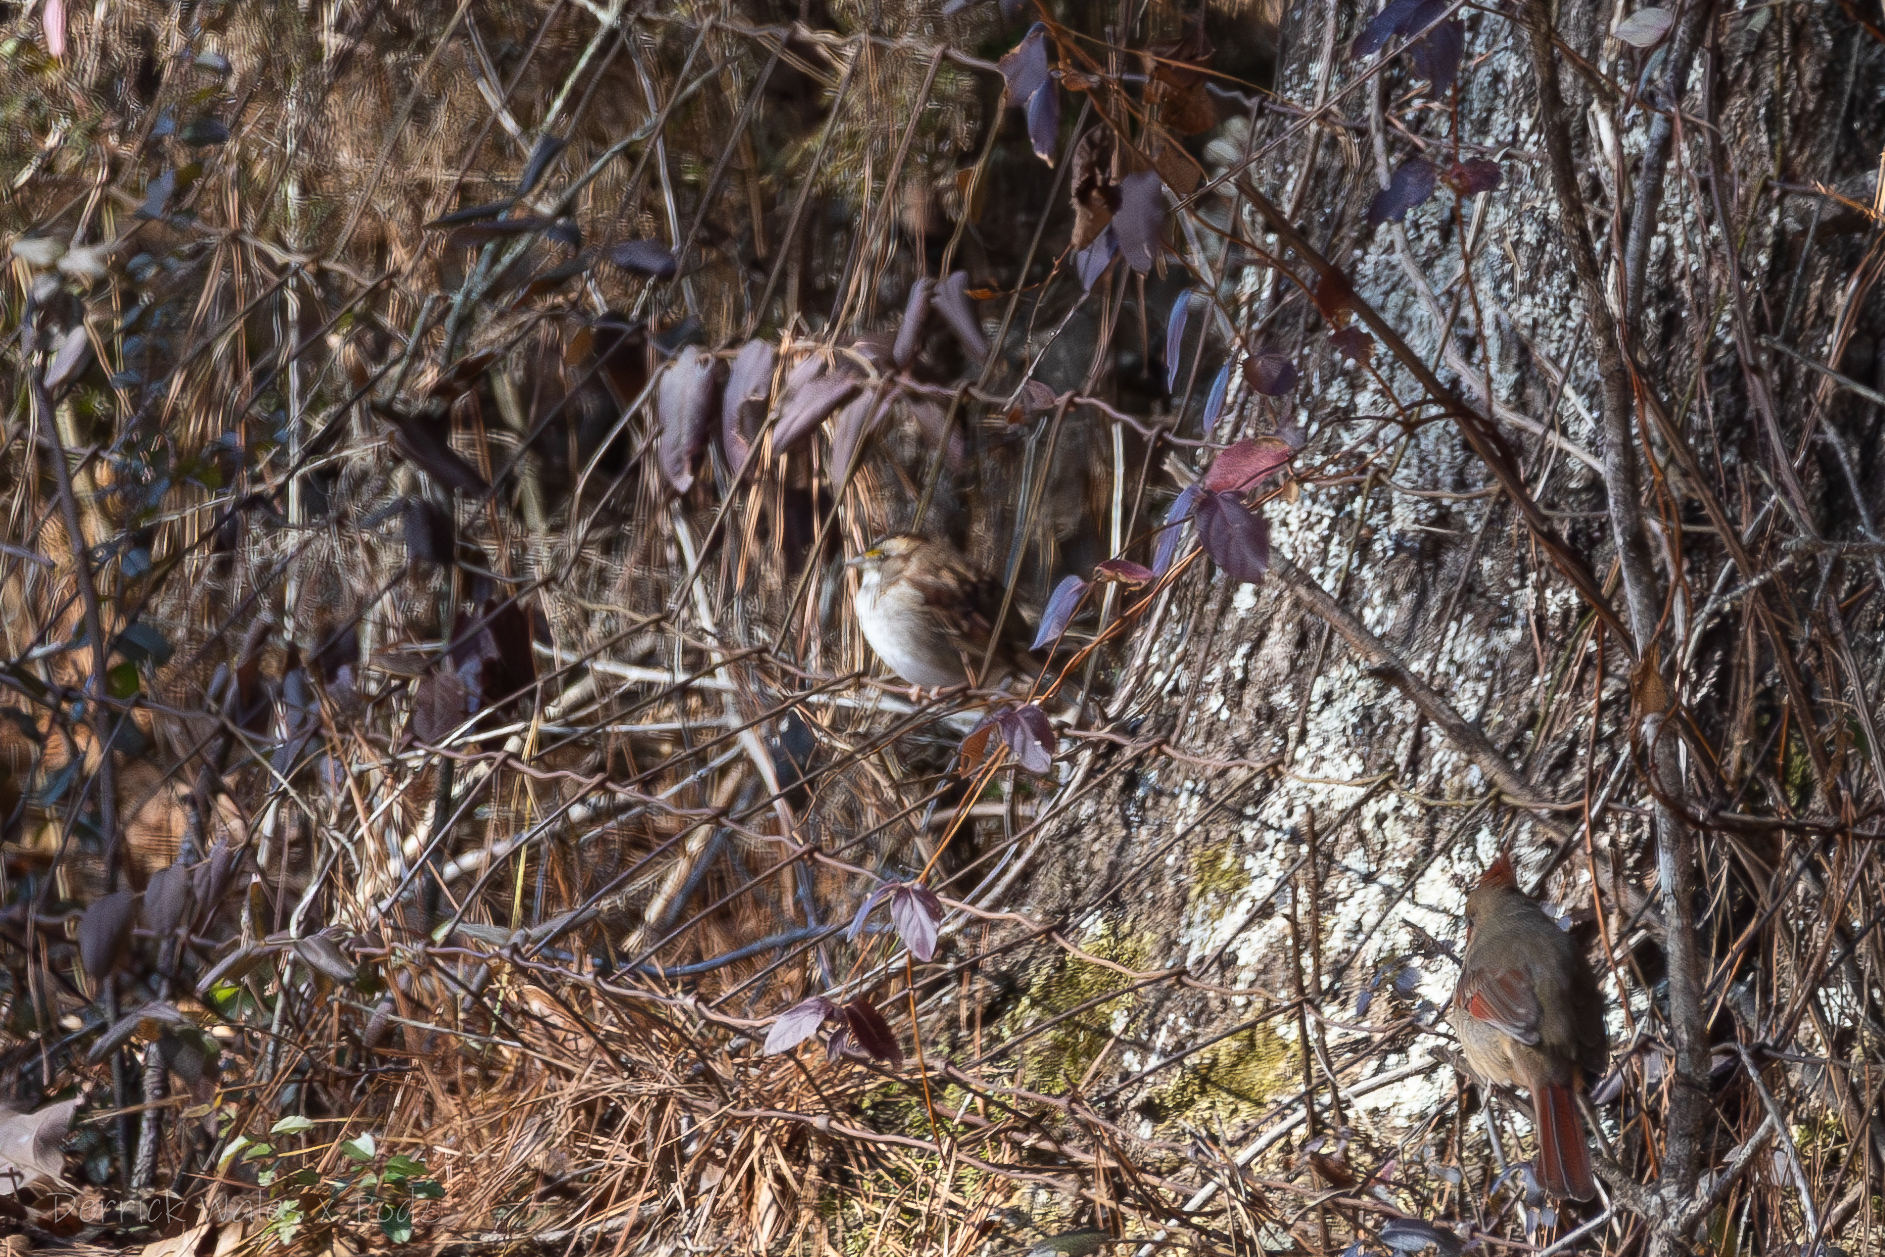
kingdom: Animalia
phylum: Chordata
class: Aves
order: Passeriformes
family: Passerellidae
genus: Zonotrichia
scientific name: Zonotrichia albicollis
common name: White-throated sparrow
